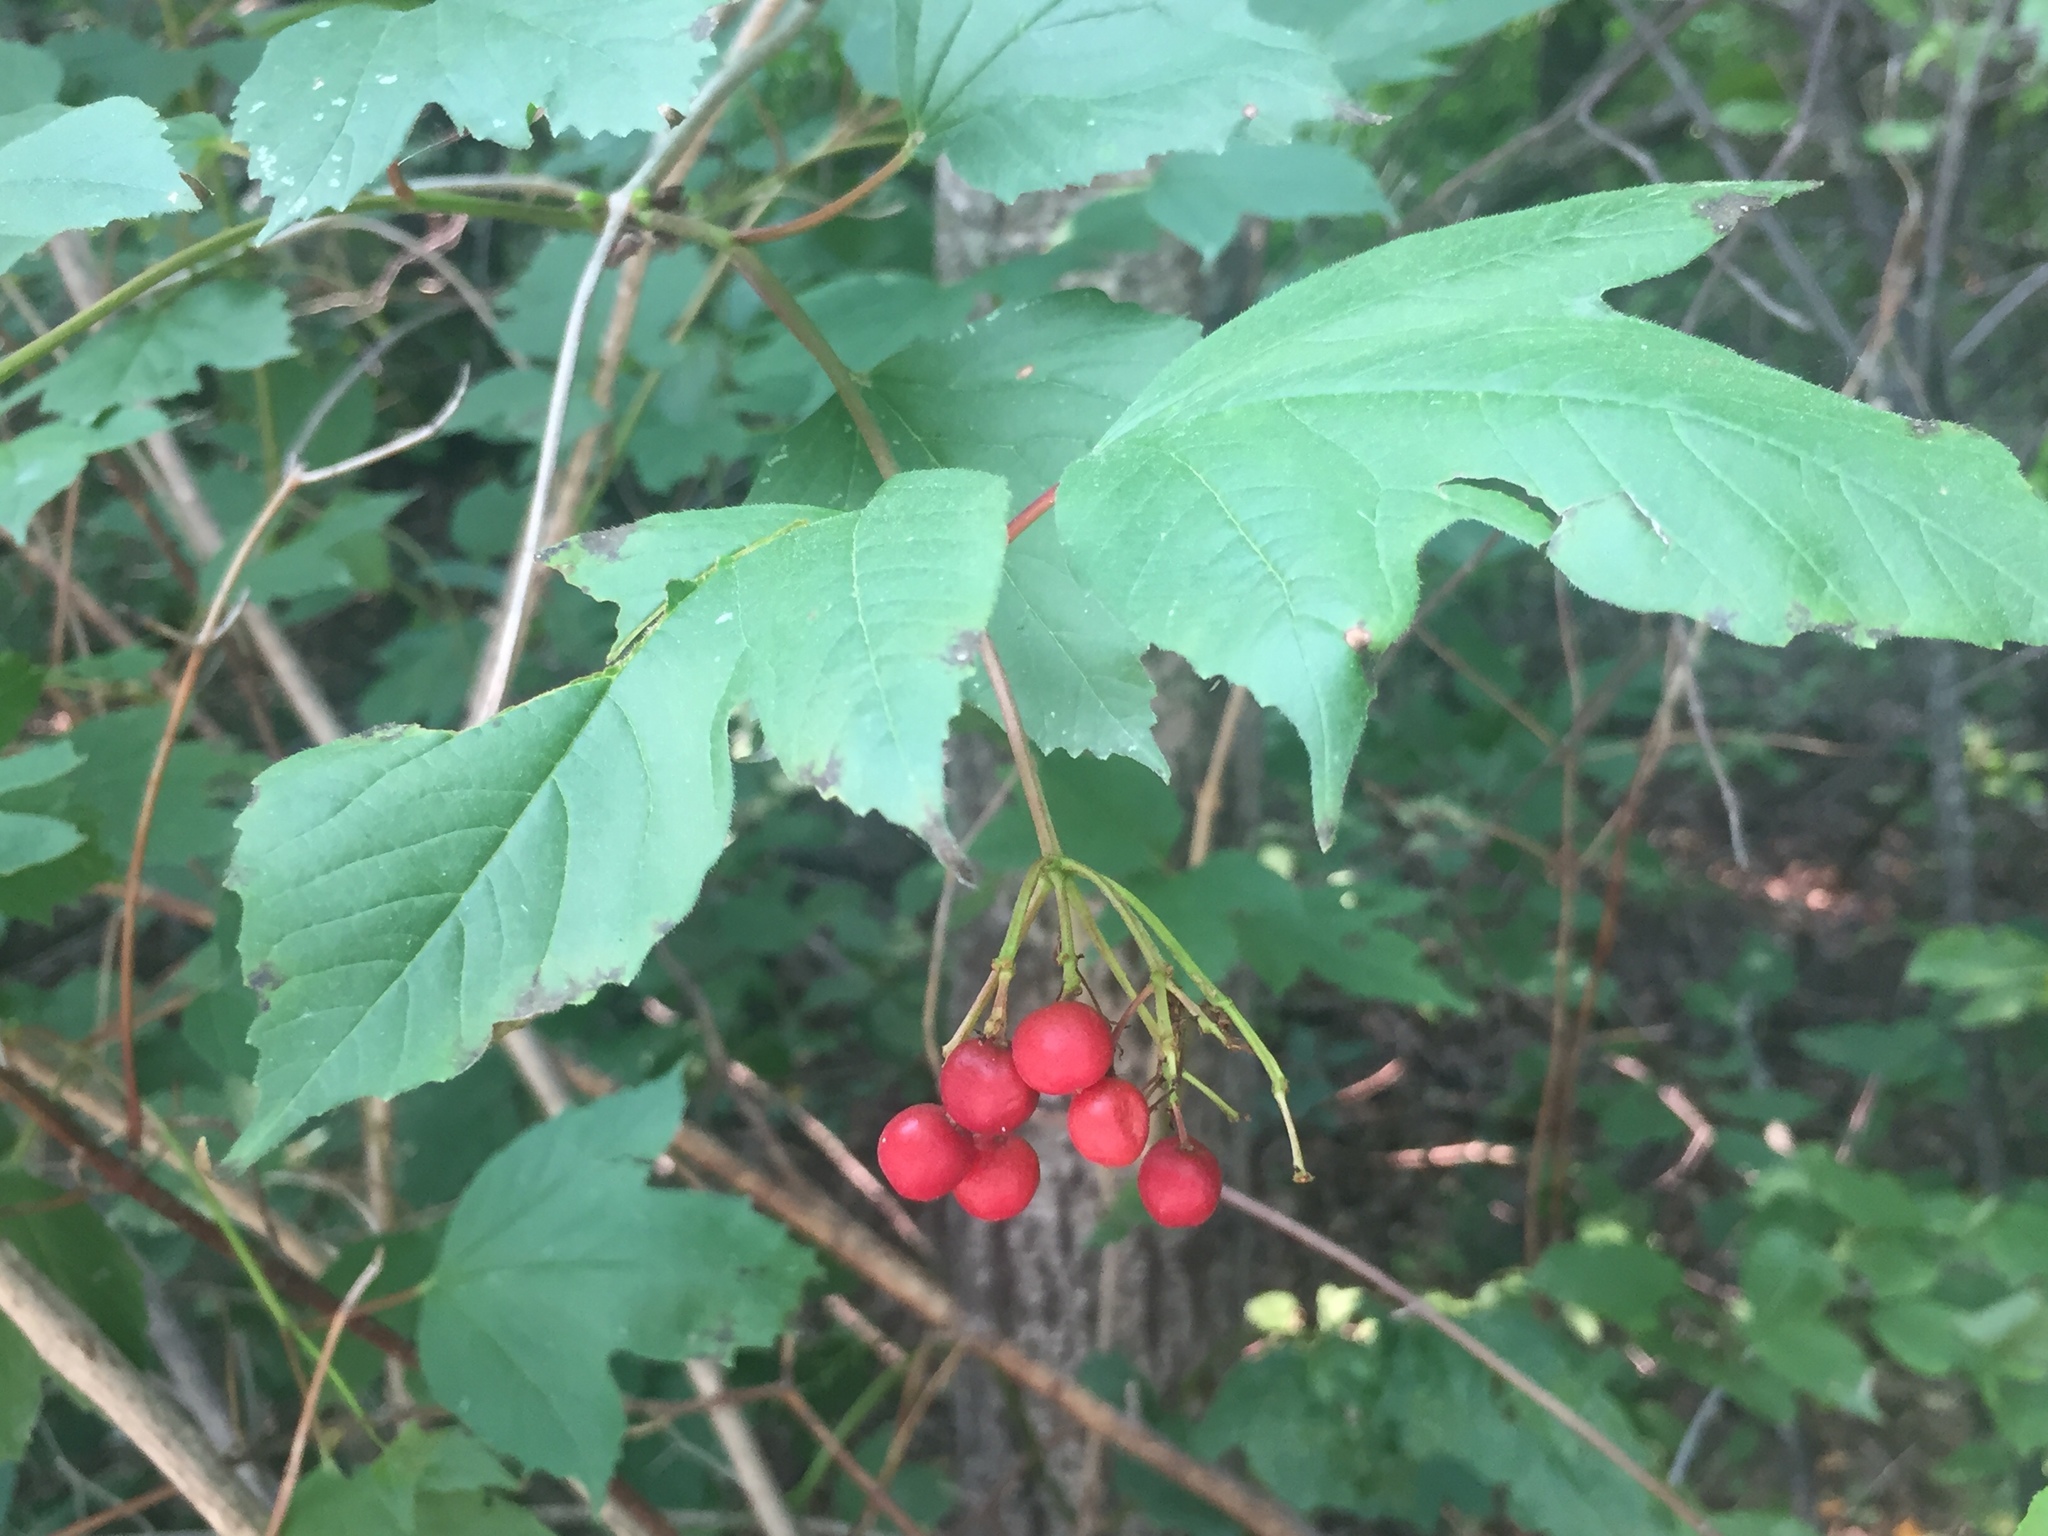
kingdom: Plantae
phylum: Tracheophyta
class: Magnoliopsida
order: Dipsacales
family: Viburnaceae
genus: Viburnum
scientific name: Viburnum trilobum
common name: American cranberrybush
